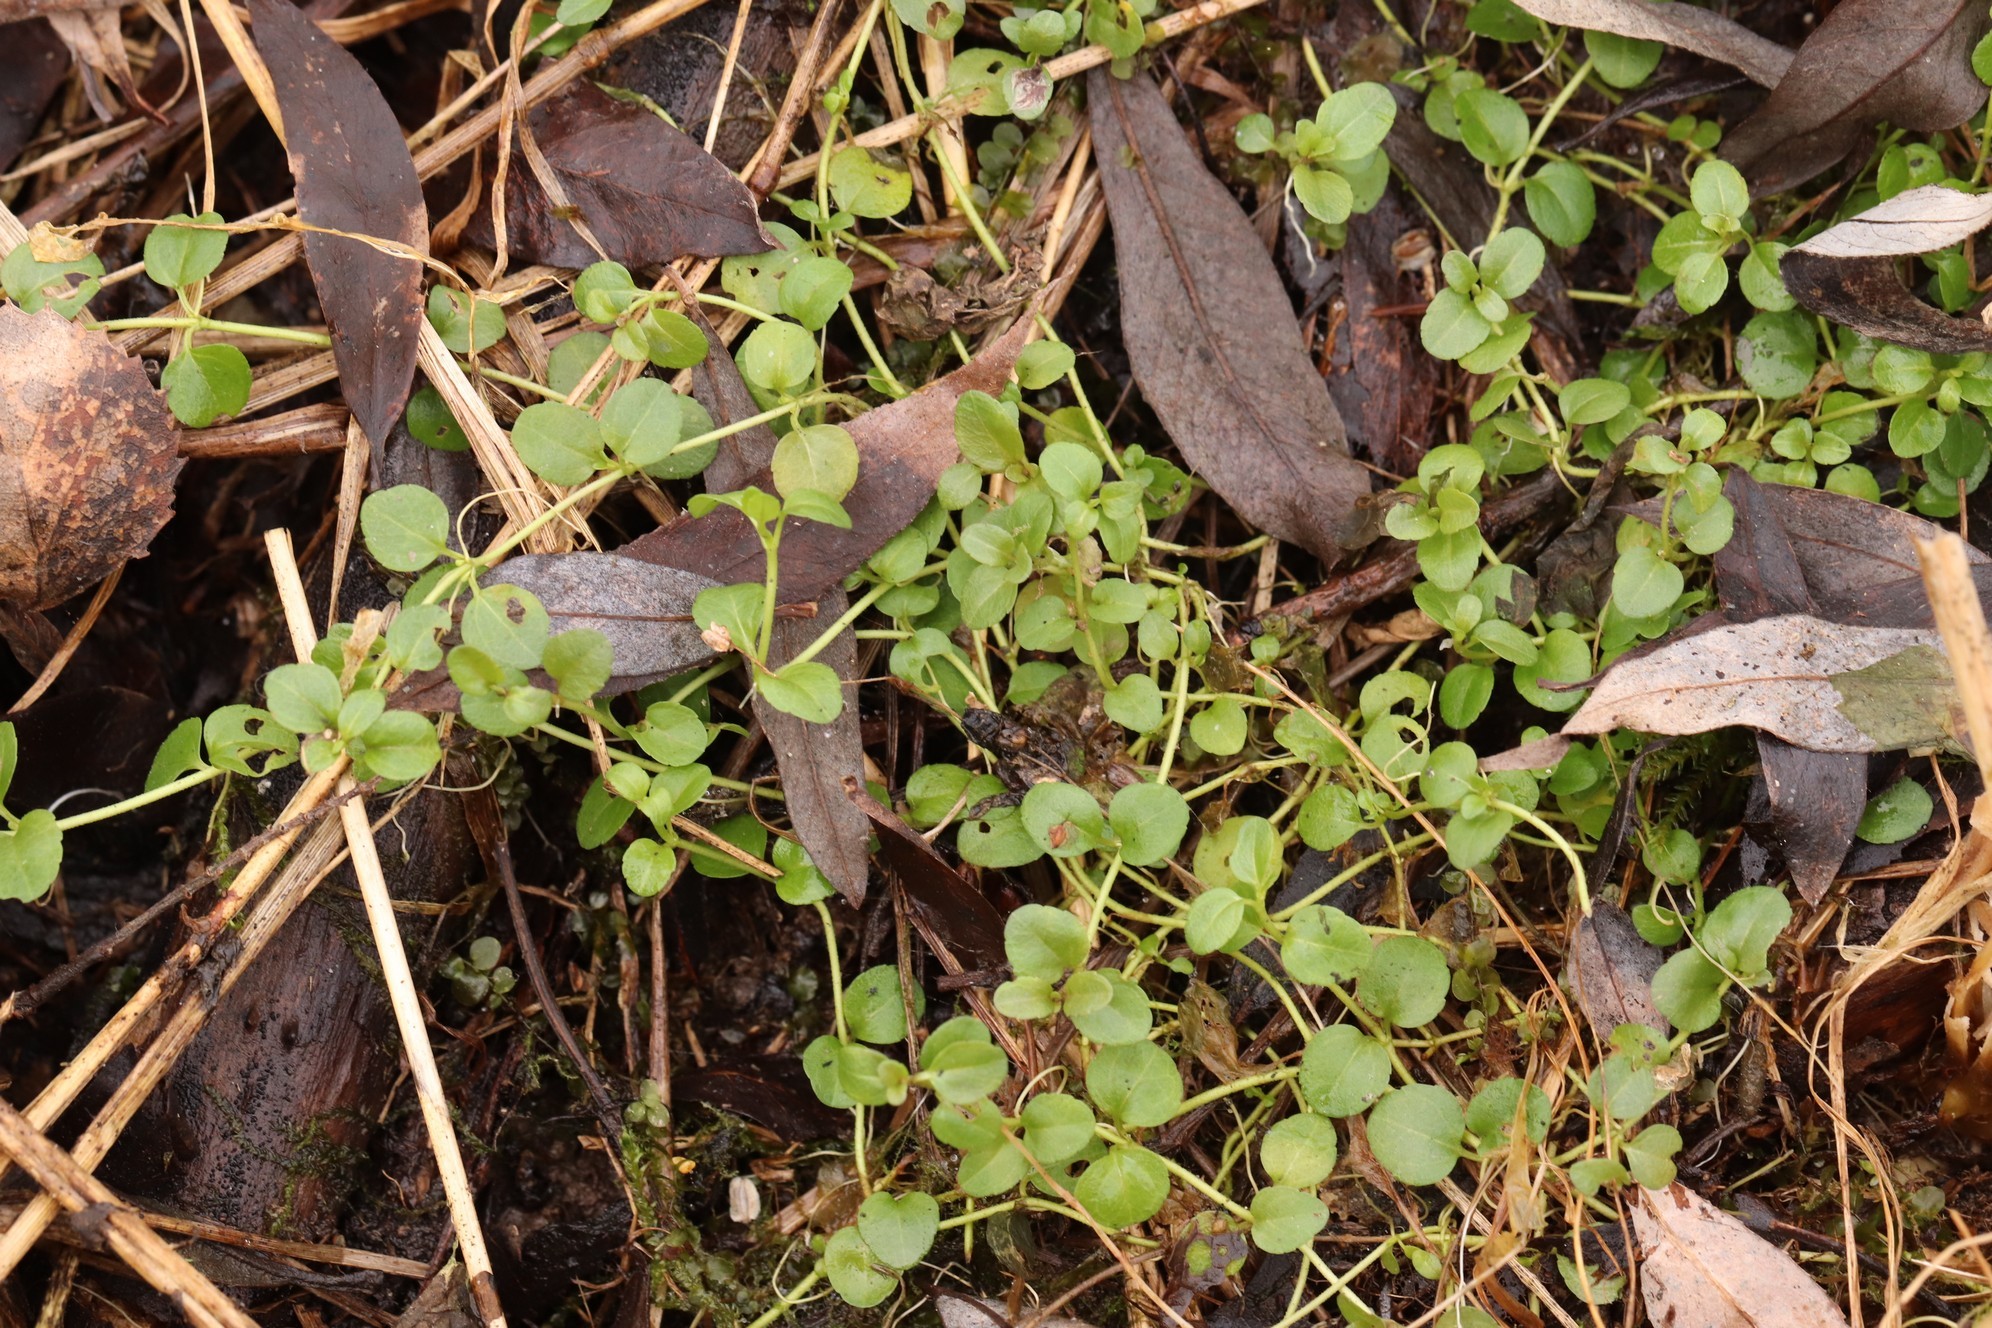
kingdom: Plantae
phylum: Tracheophyta
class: Magnoliopsida
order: Dipsacales
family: Caprifoliaceae
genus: Linnaea
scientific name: Linnaea borealis
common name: Twinflower
